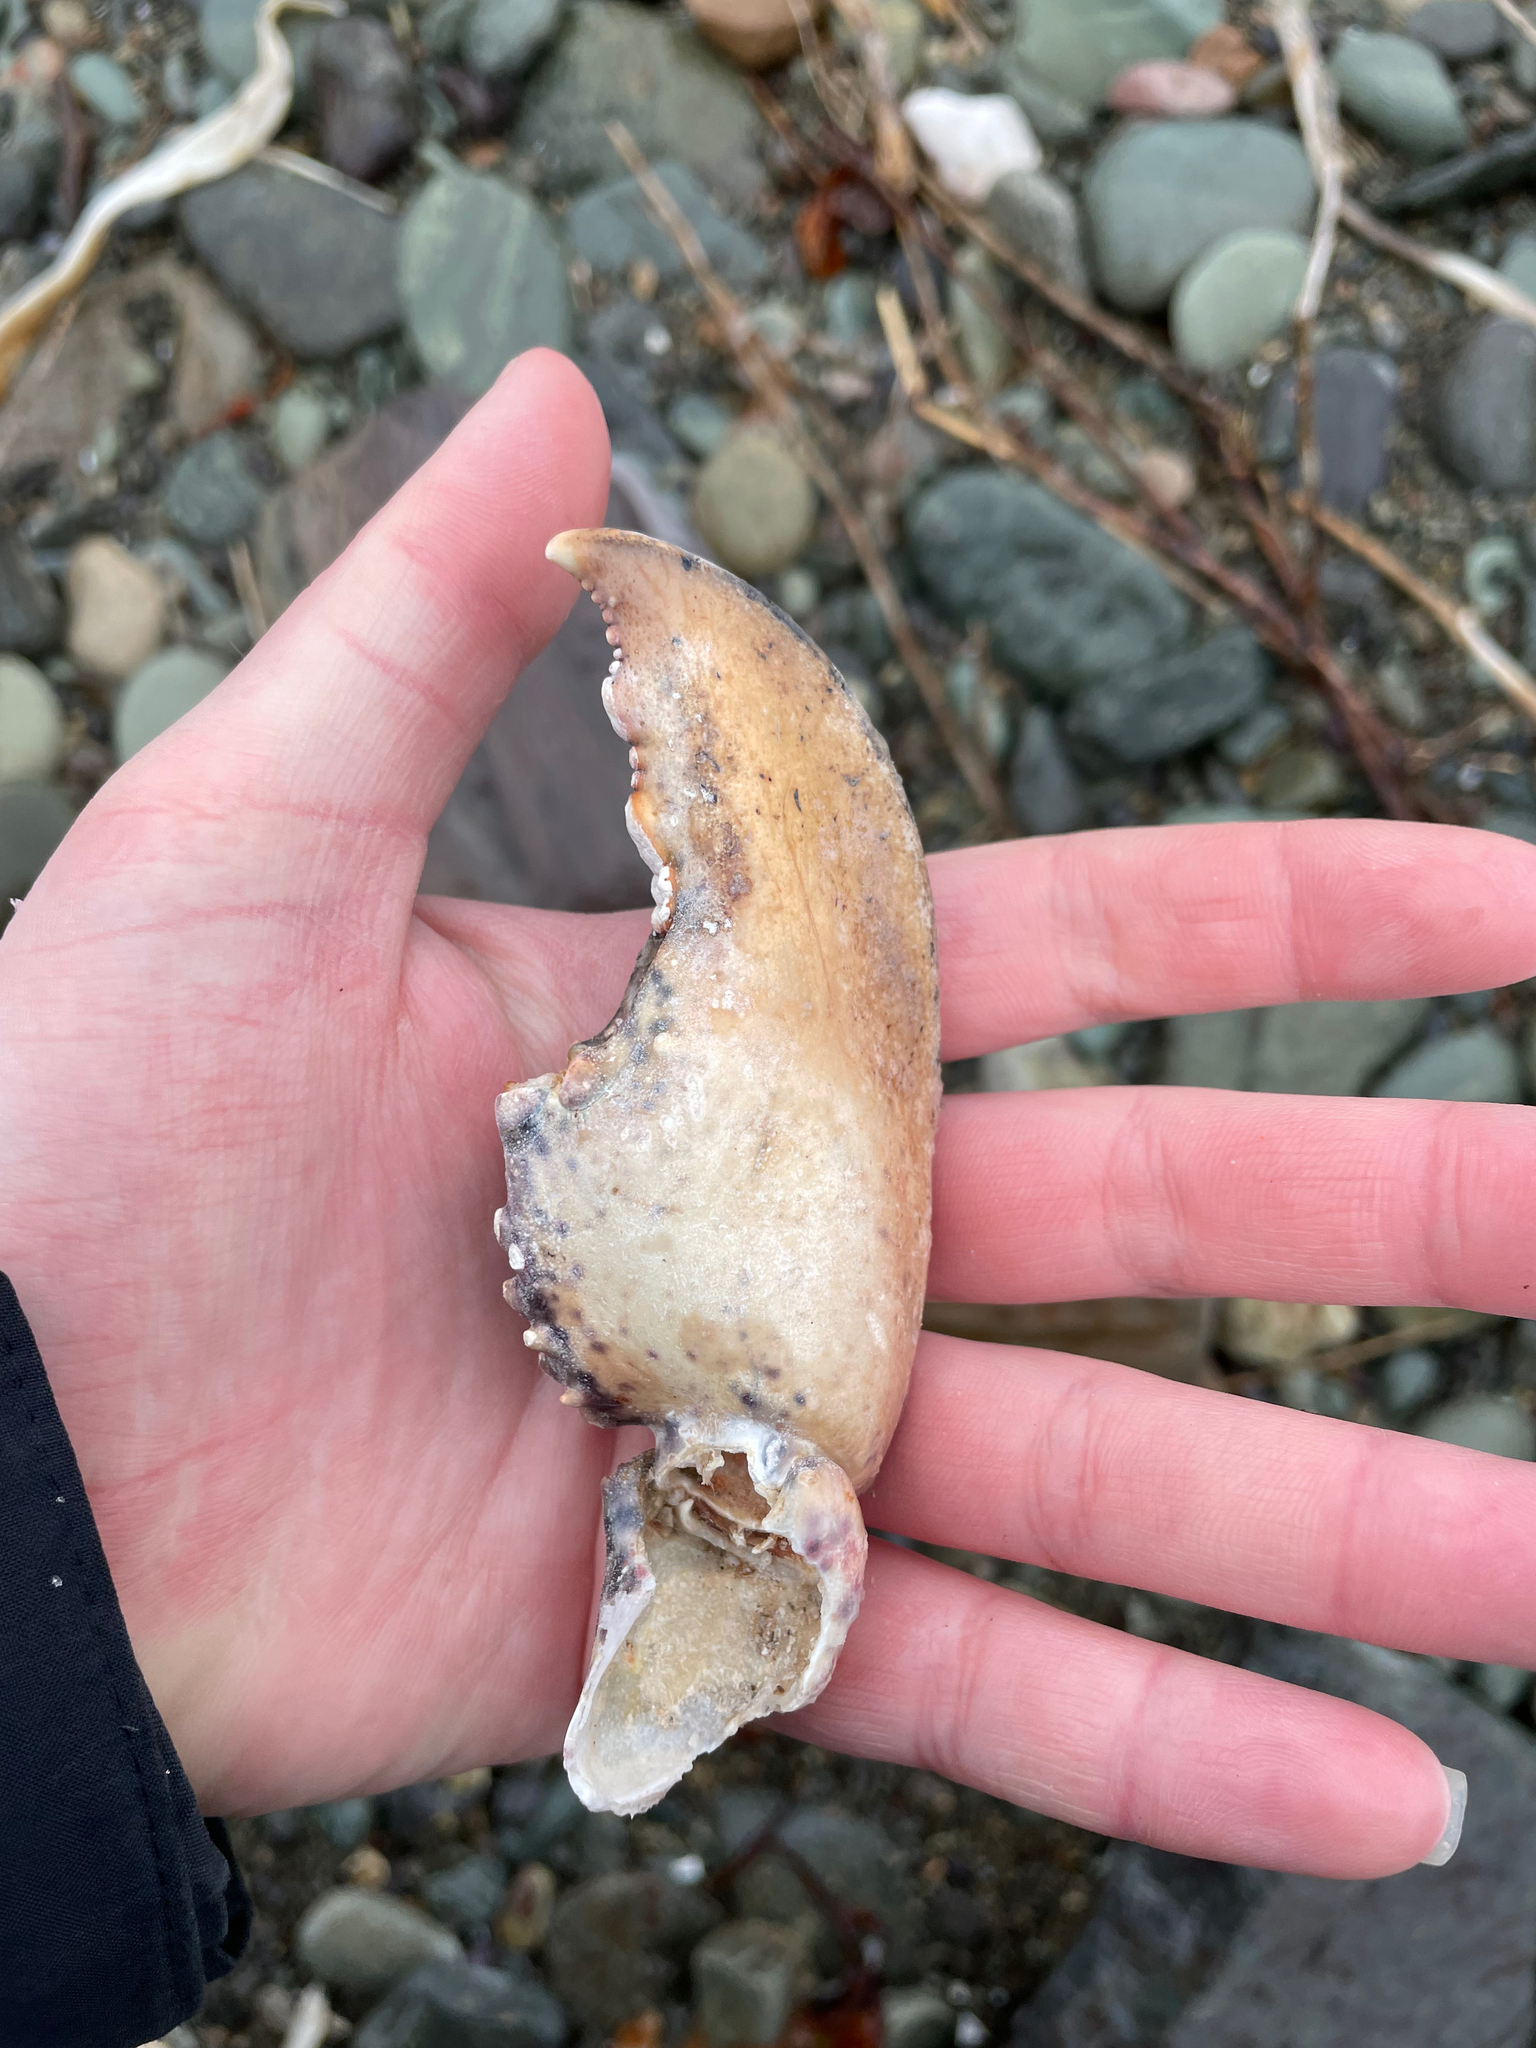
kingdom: Animalia
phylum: Arthropoda
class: Malacostraca
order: Decapoda
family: Nephropidae
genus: Homarus
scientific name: Homarus americanus
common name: American lobster
